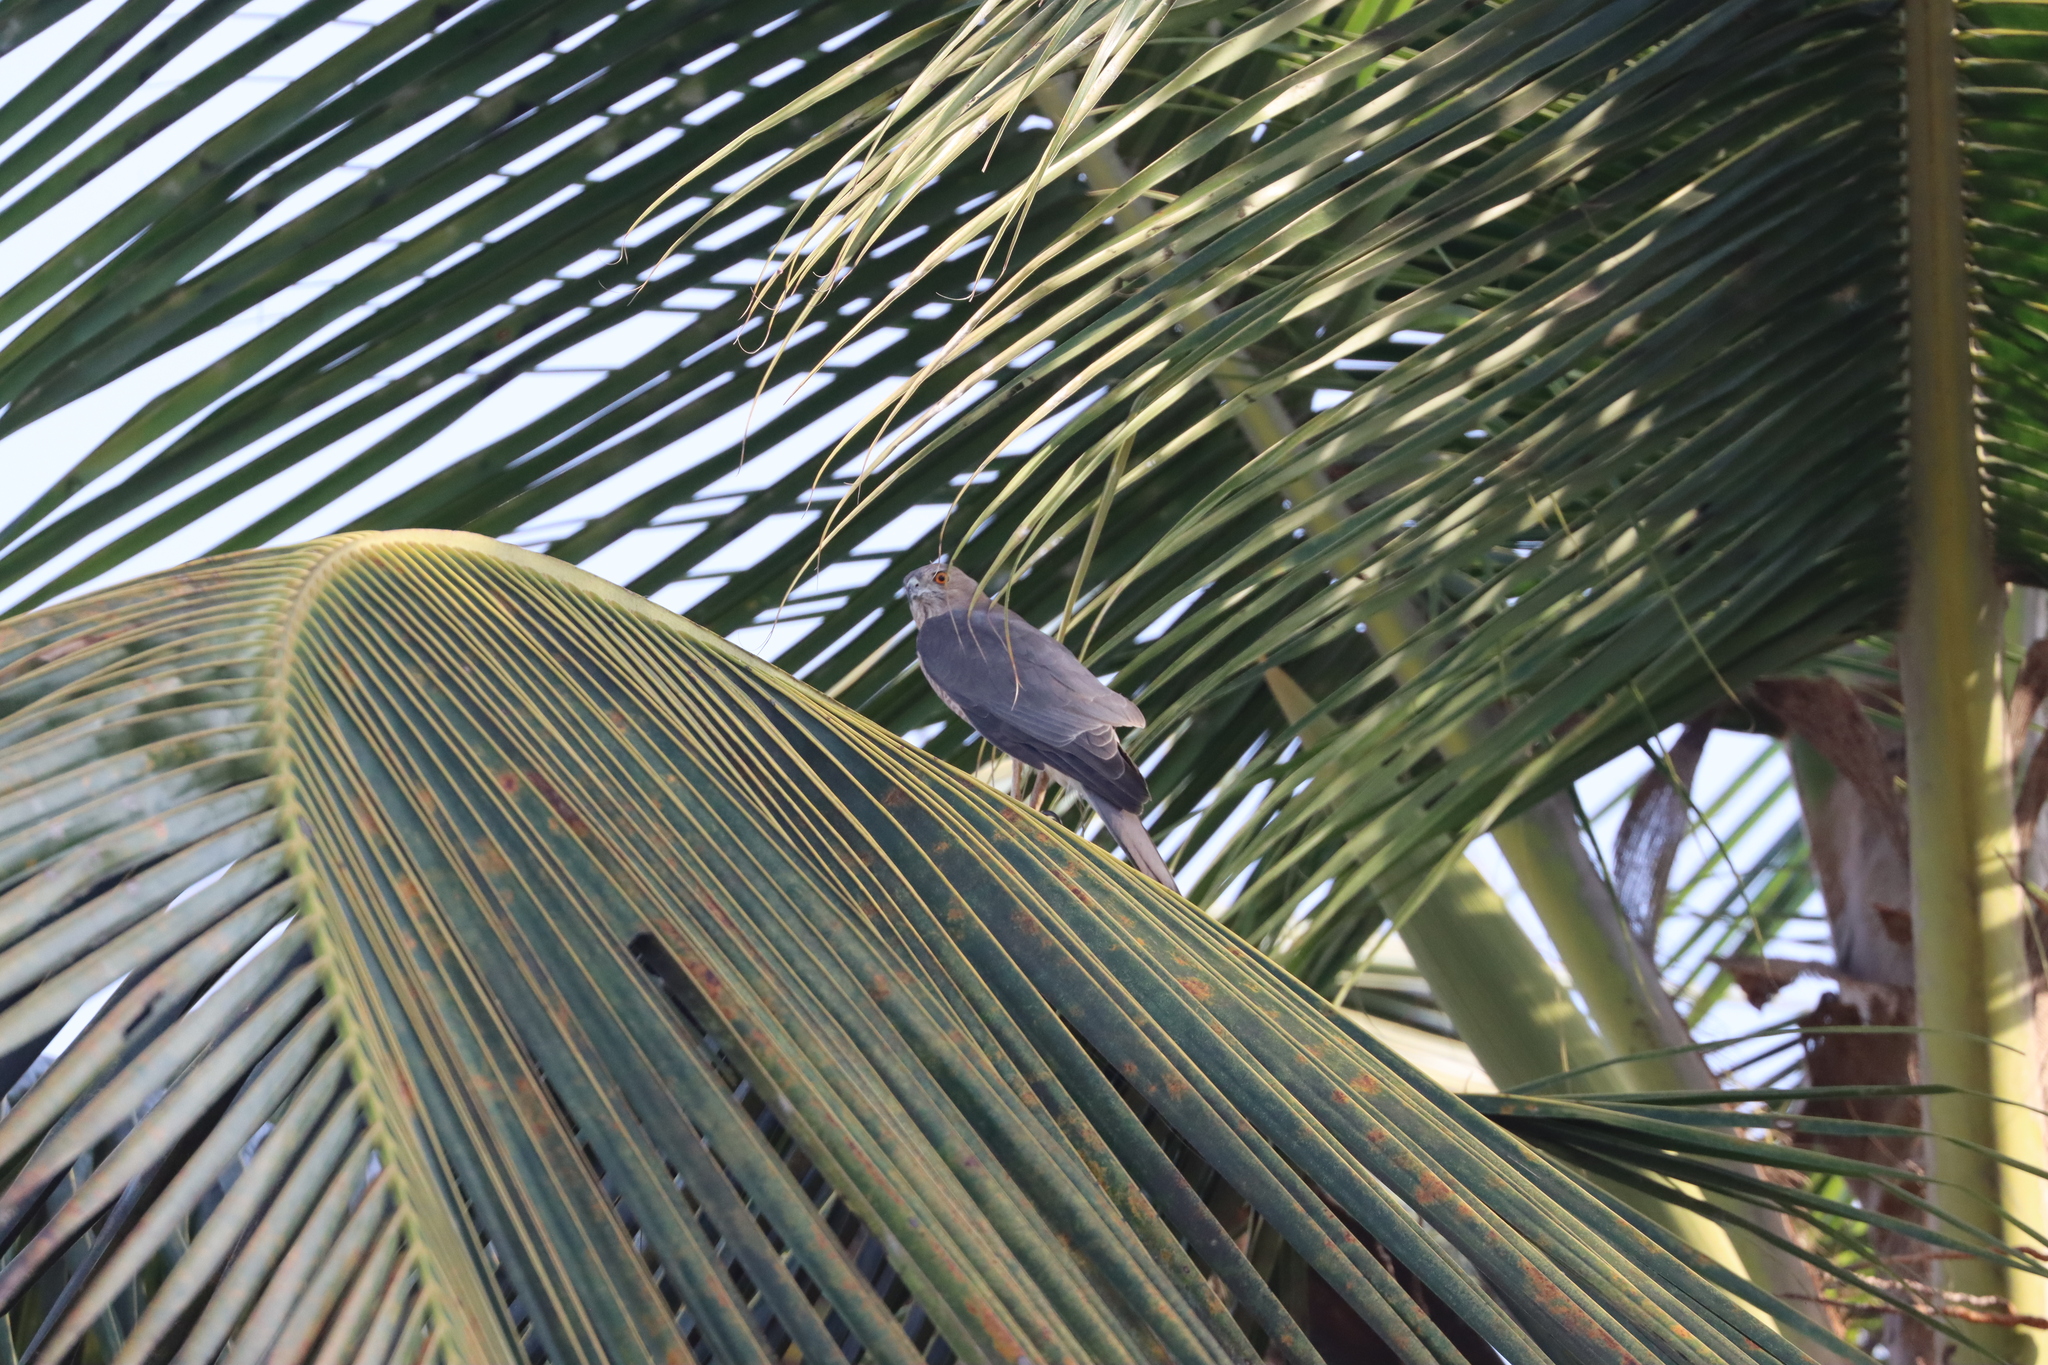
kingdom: Animalia
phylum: Chordata
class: Aves
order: Accipitriformes
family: Accipitridae
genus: Accipiter
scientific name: Accipiter badius
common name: Shikra
